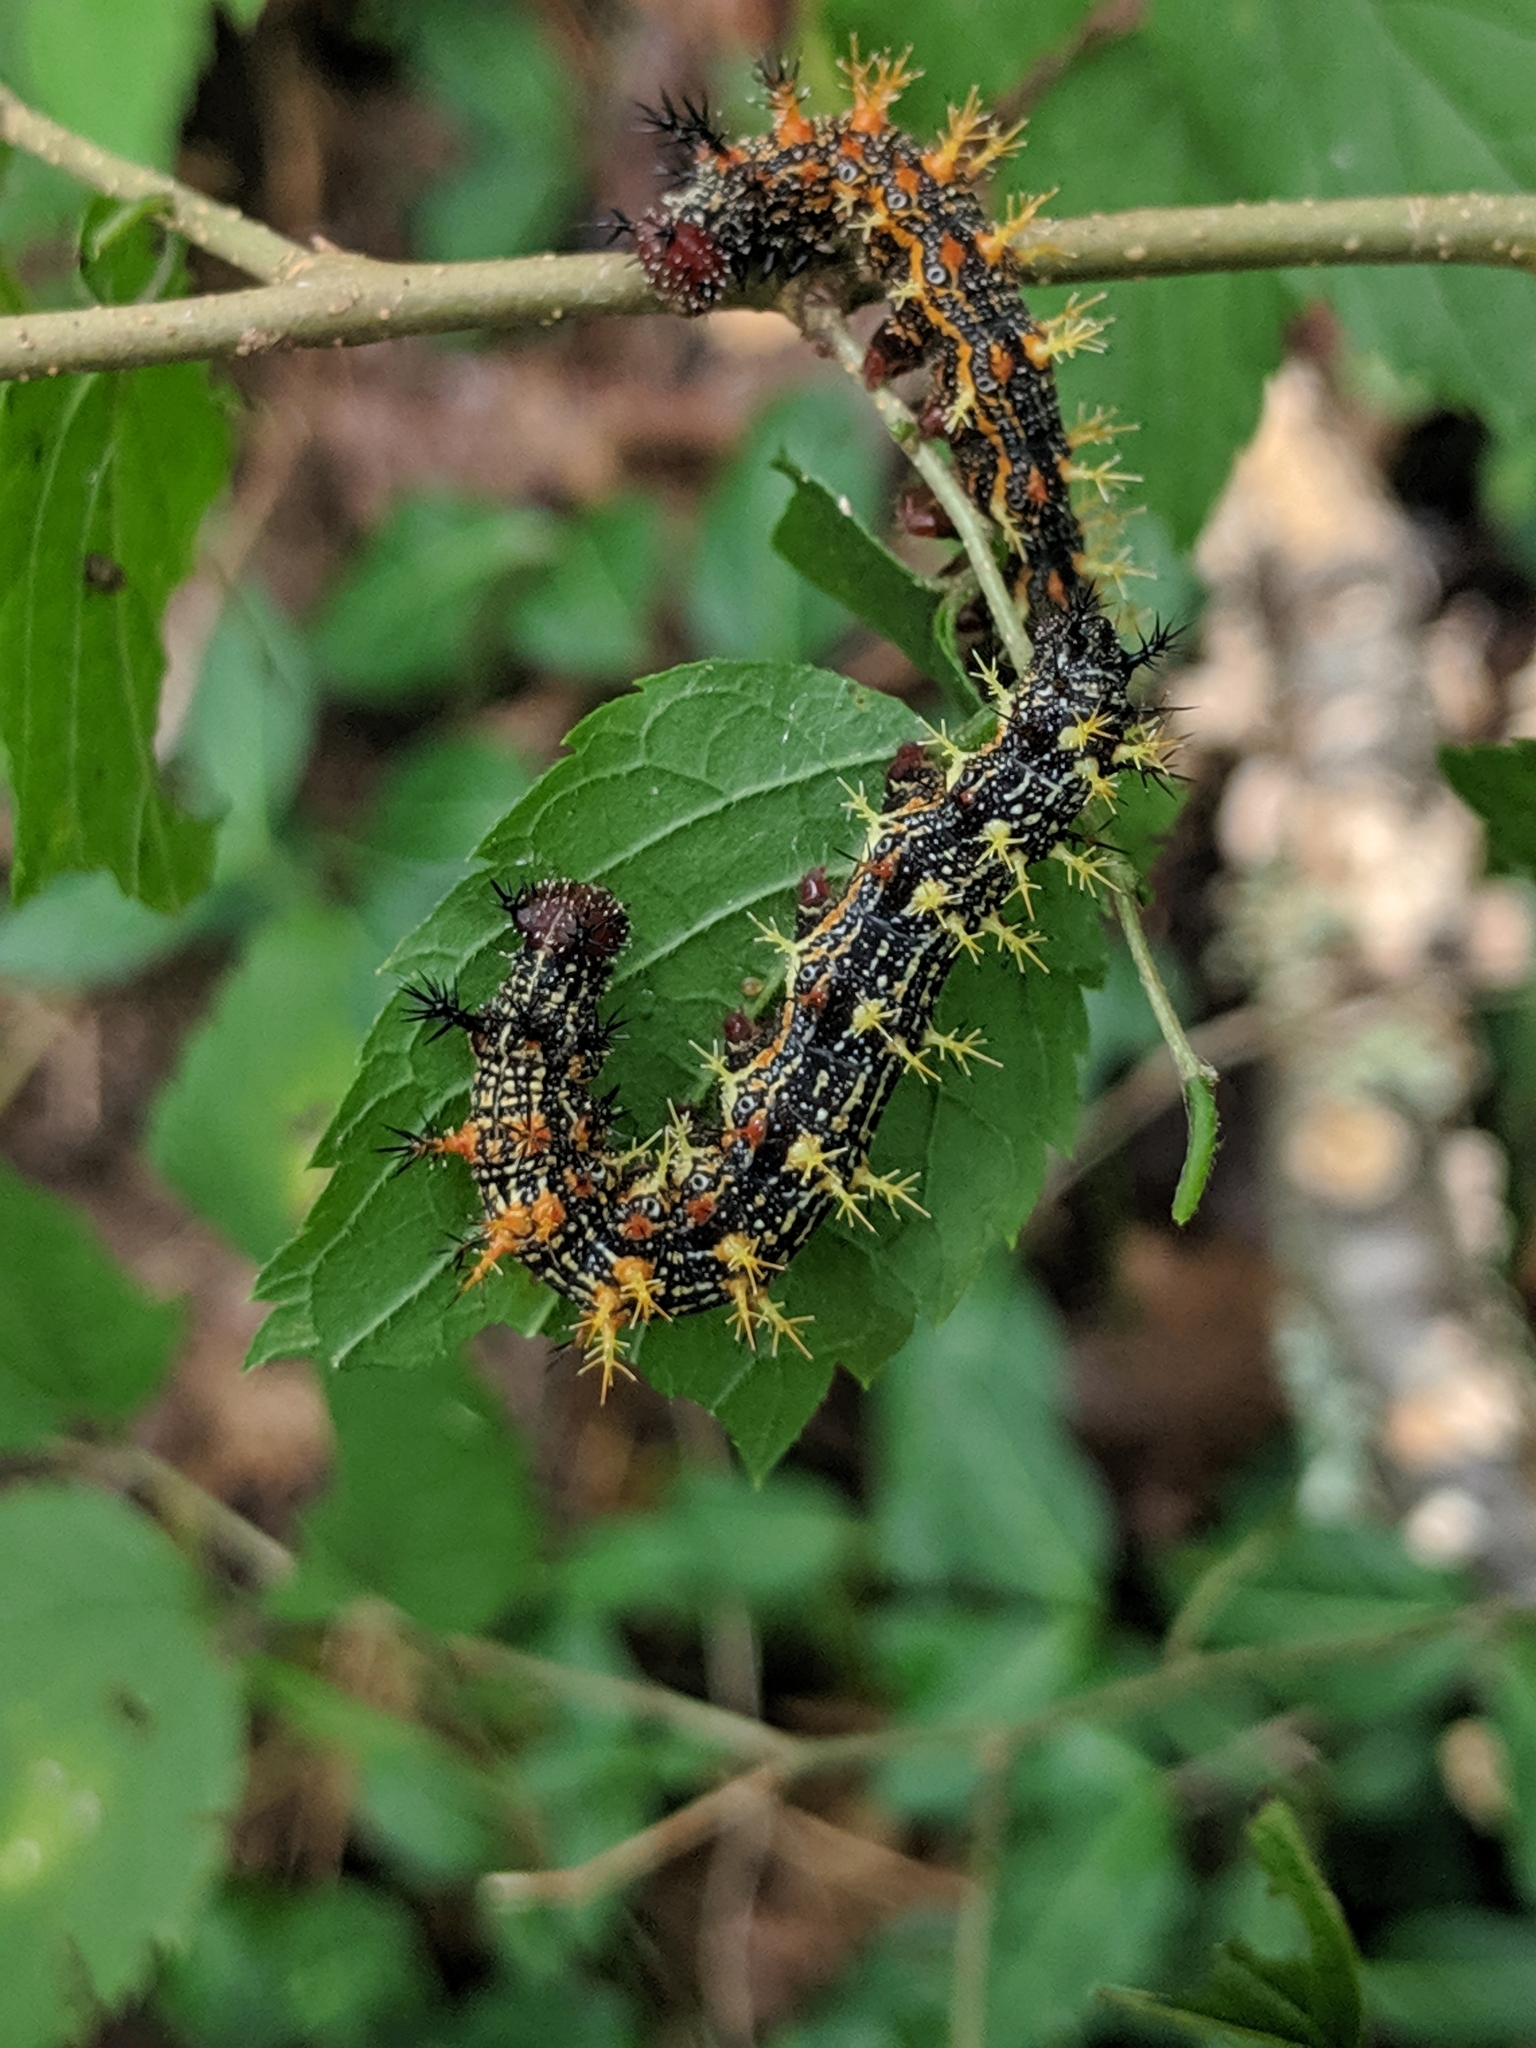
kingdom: Animalia
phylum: Arthropoda
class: Insecta
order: Lepidoptera
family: Nymphalidae
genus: Polygonia
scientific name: Polygonia interrogationis
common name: Question mark
